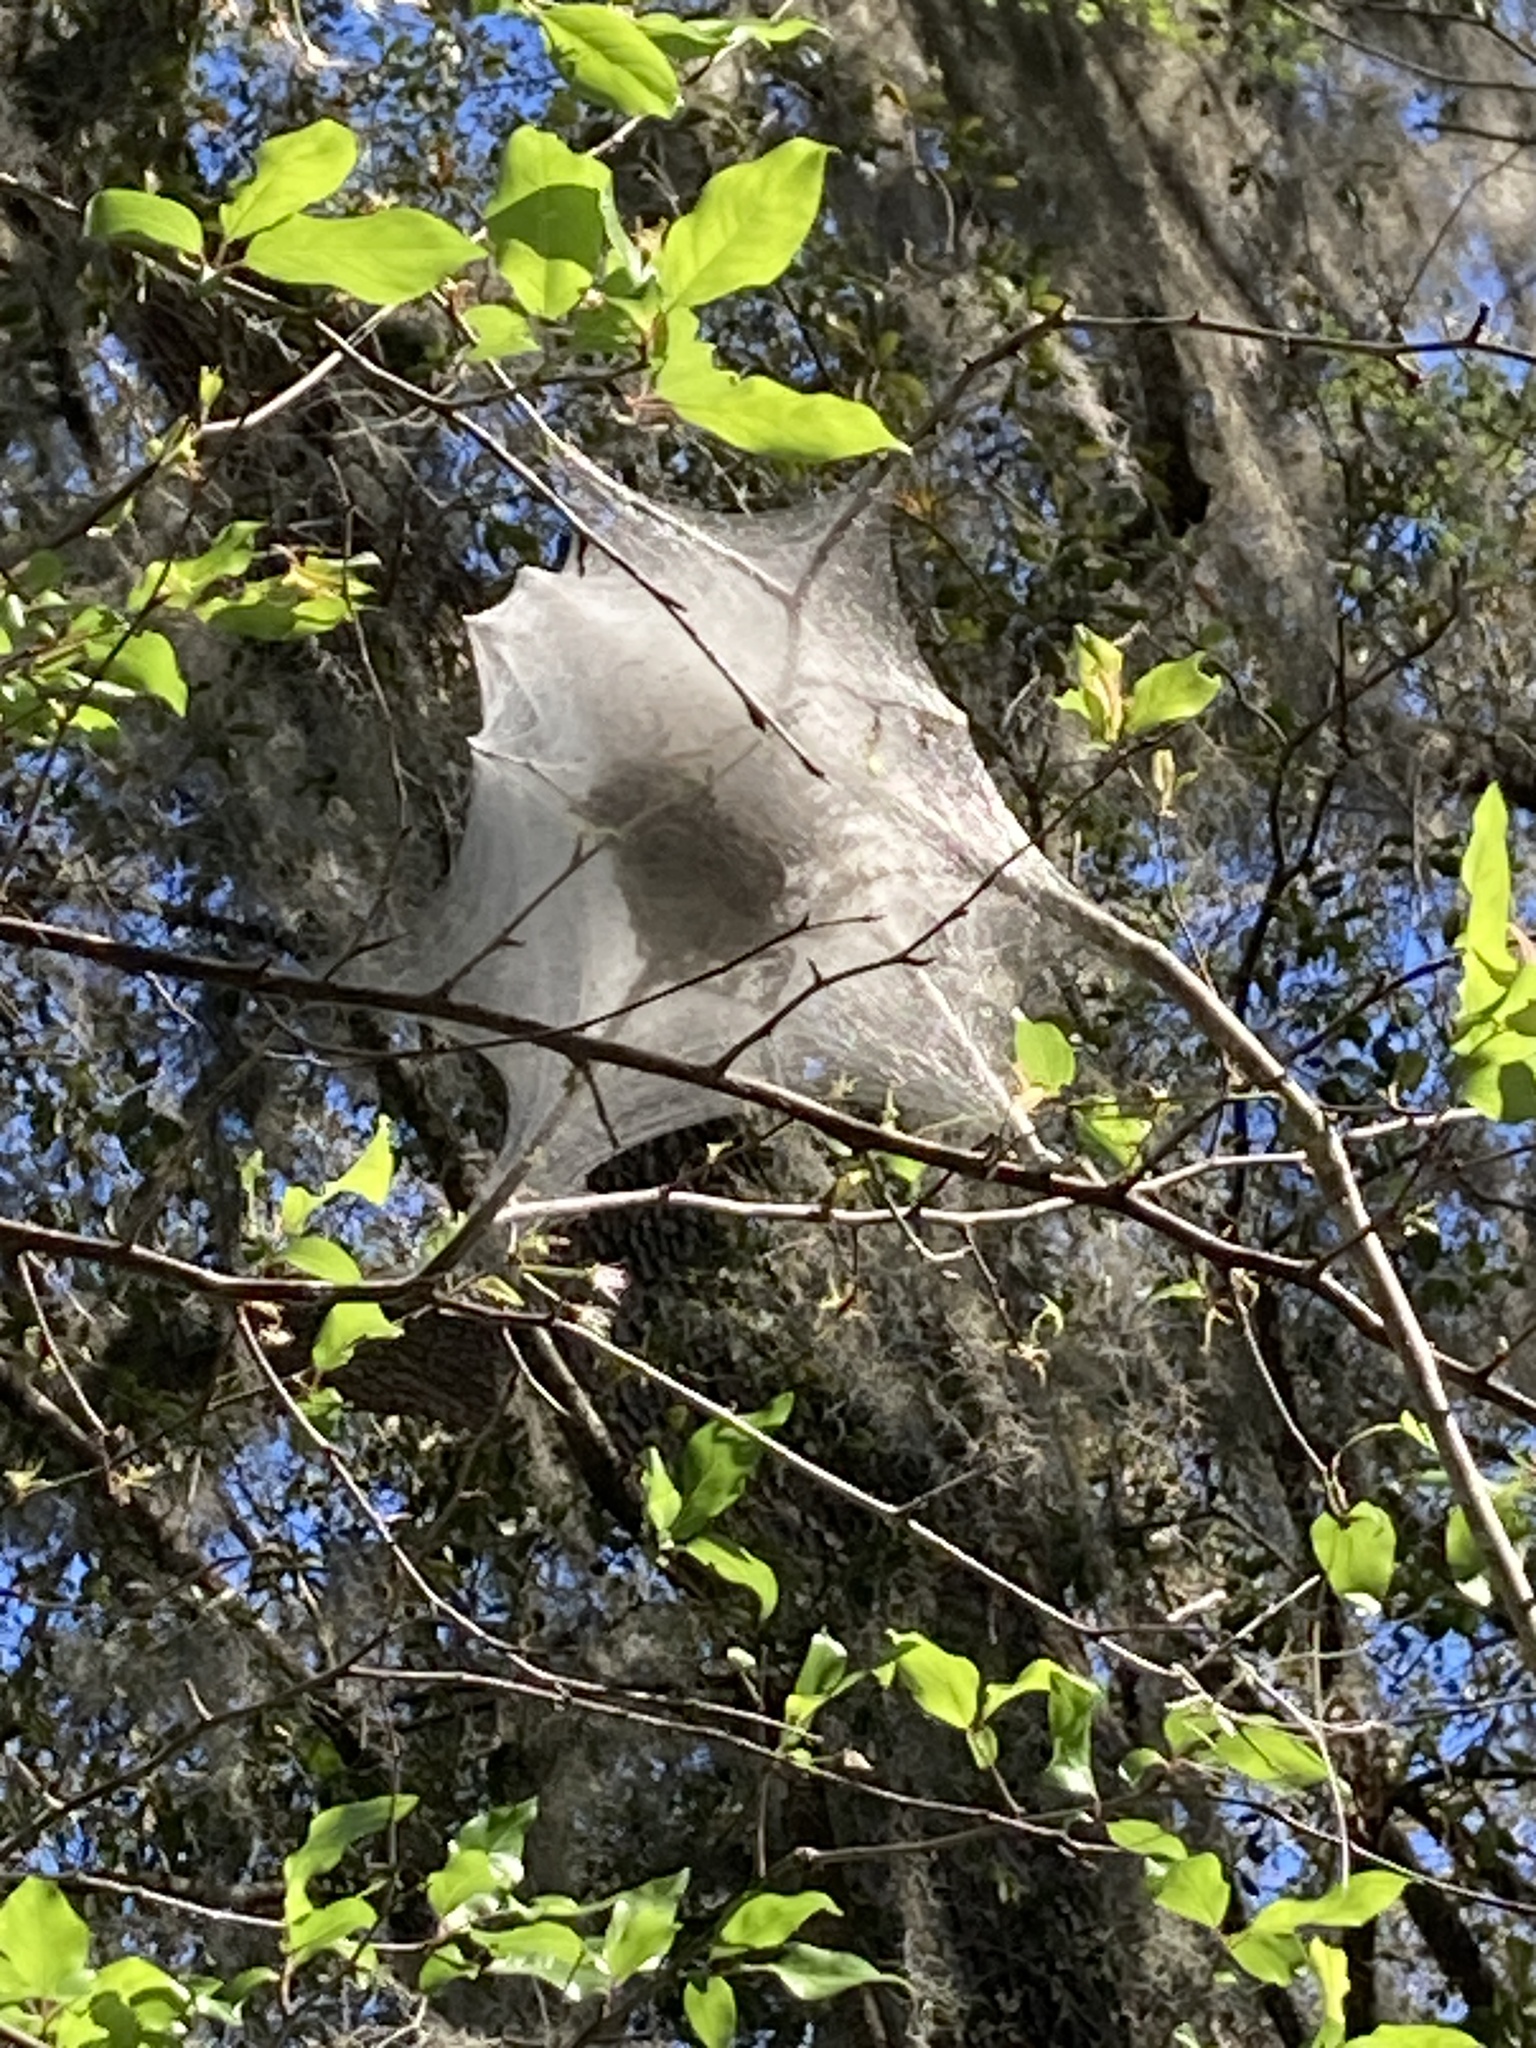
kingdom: Animalia
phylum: Arthropoda
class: Insecta
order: Lepidoptera
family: Lasiocampidae
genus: Malacosoma
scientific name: Malacosoma americana
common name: Eastern tent caterpillar moth
